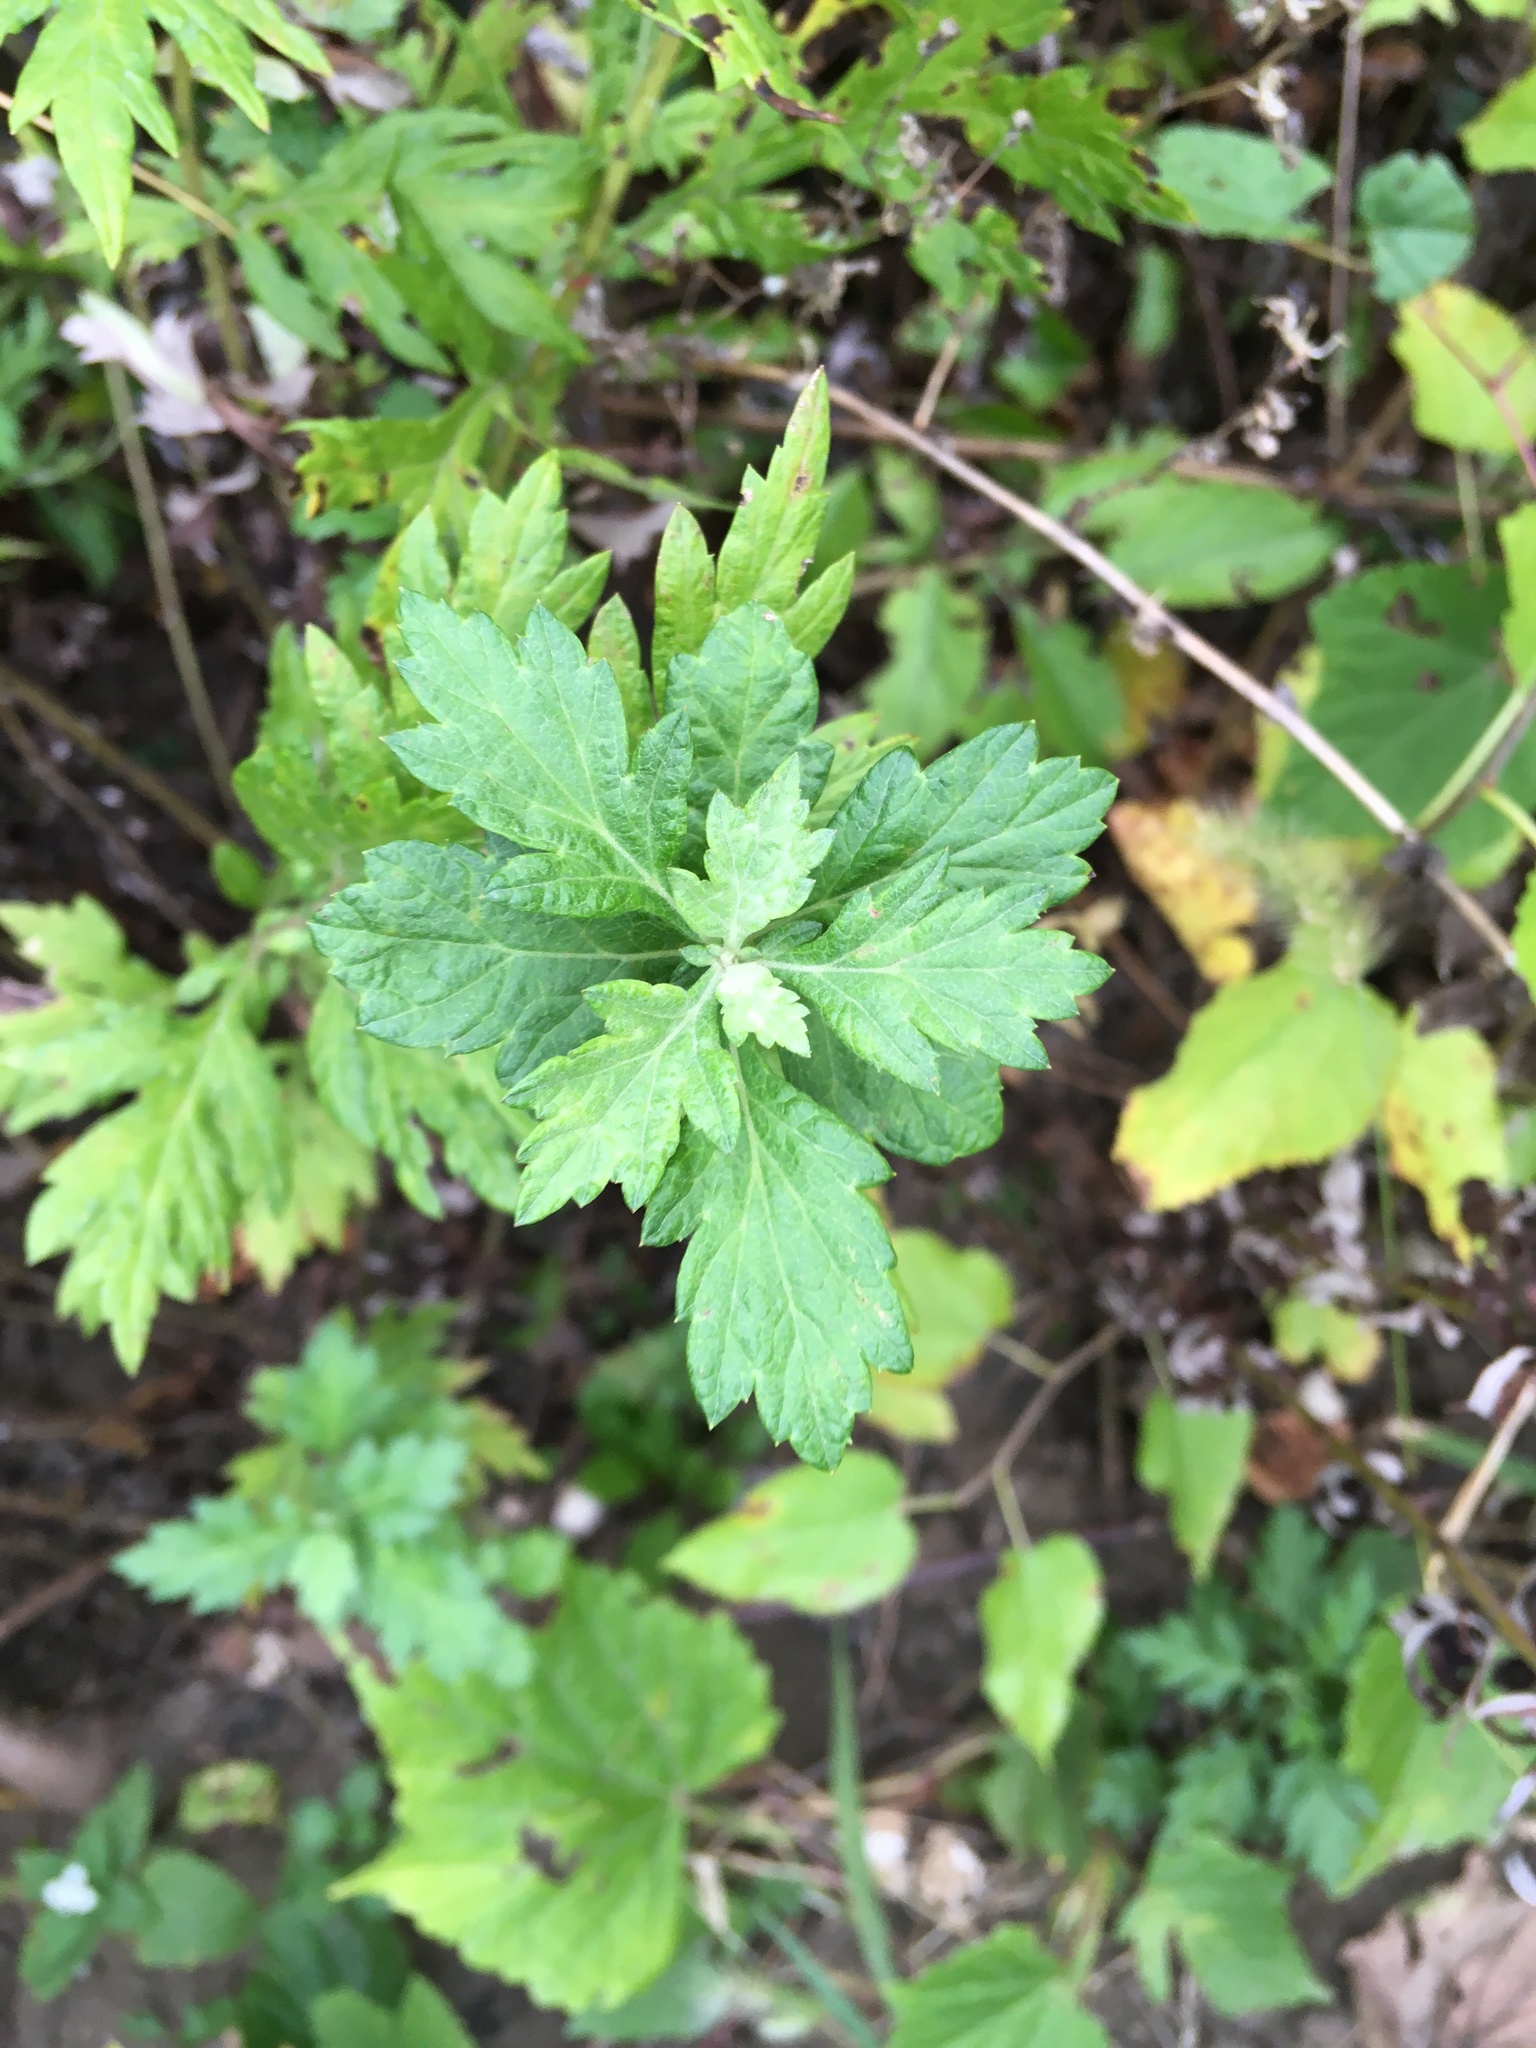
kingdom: Plantae
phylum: Tracheophyta
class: Magnoliopsida
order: Asterales
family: Asteraceae
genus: Artemisia
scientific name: Artemisia vulgaris
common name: Mugwort
